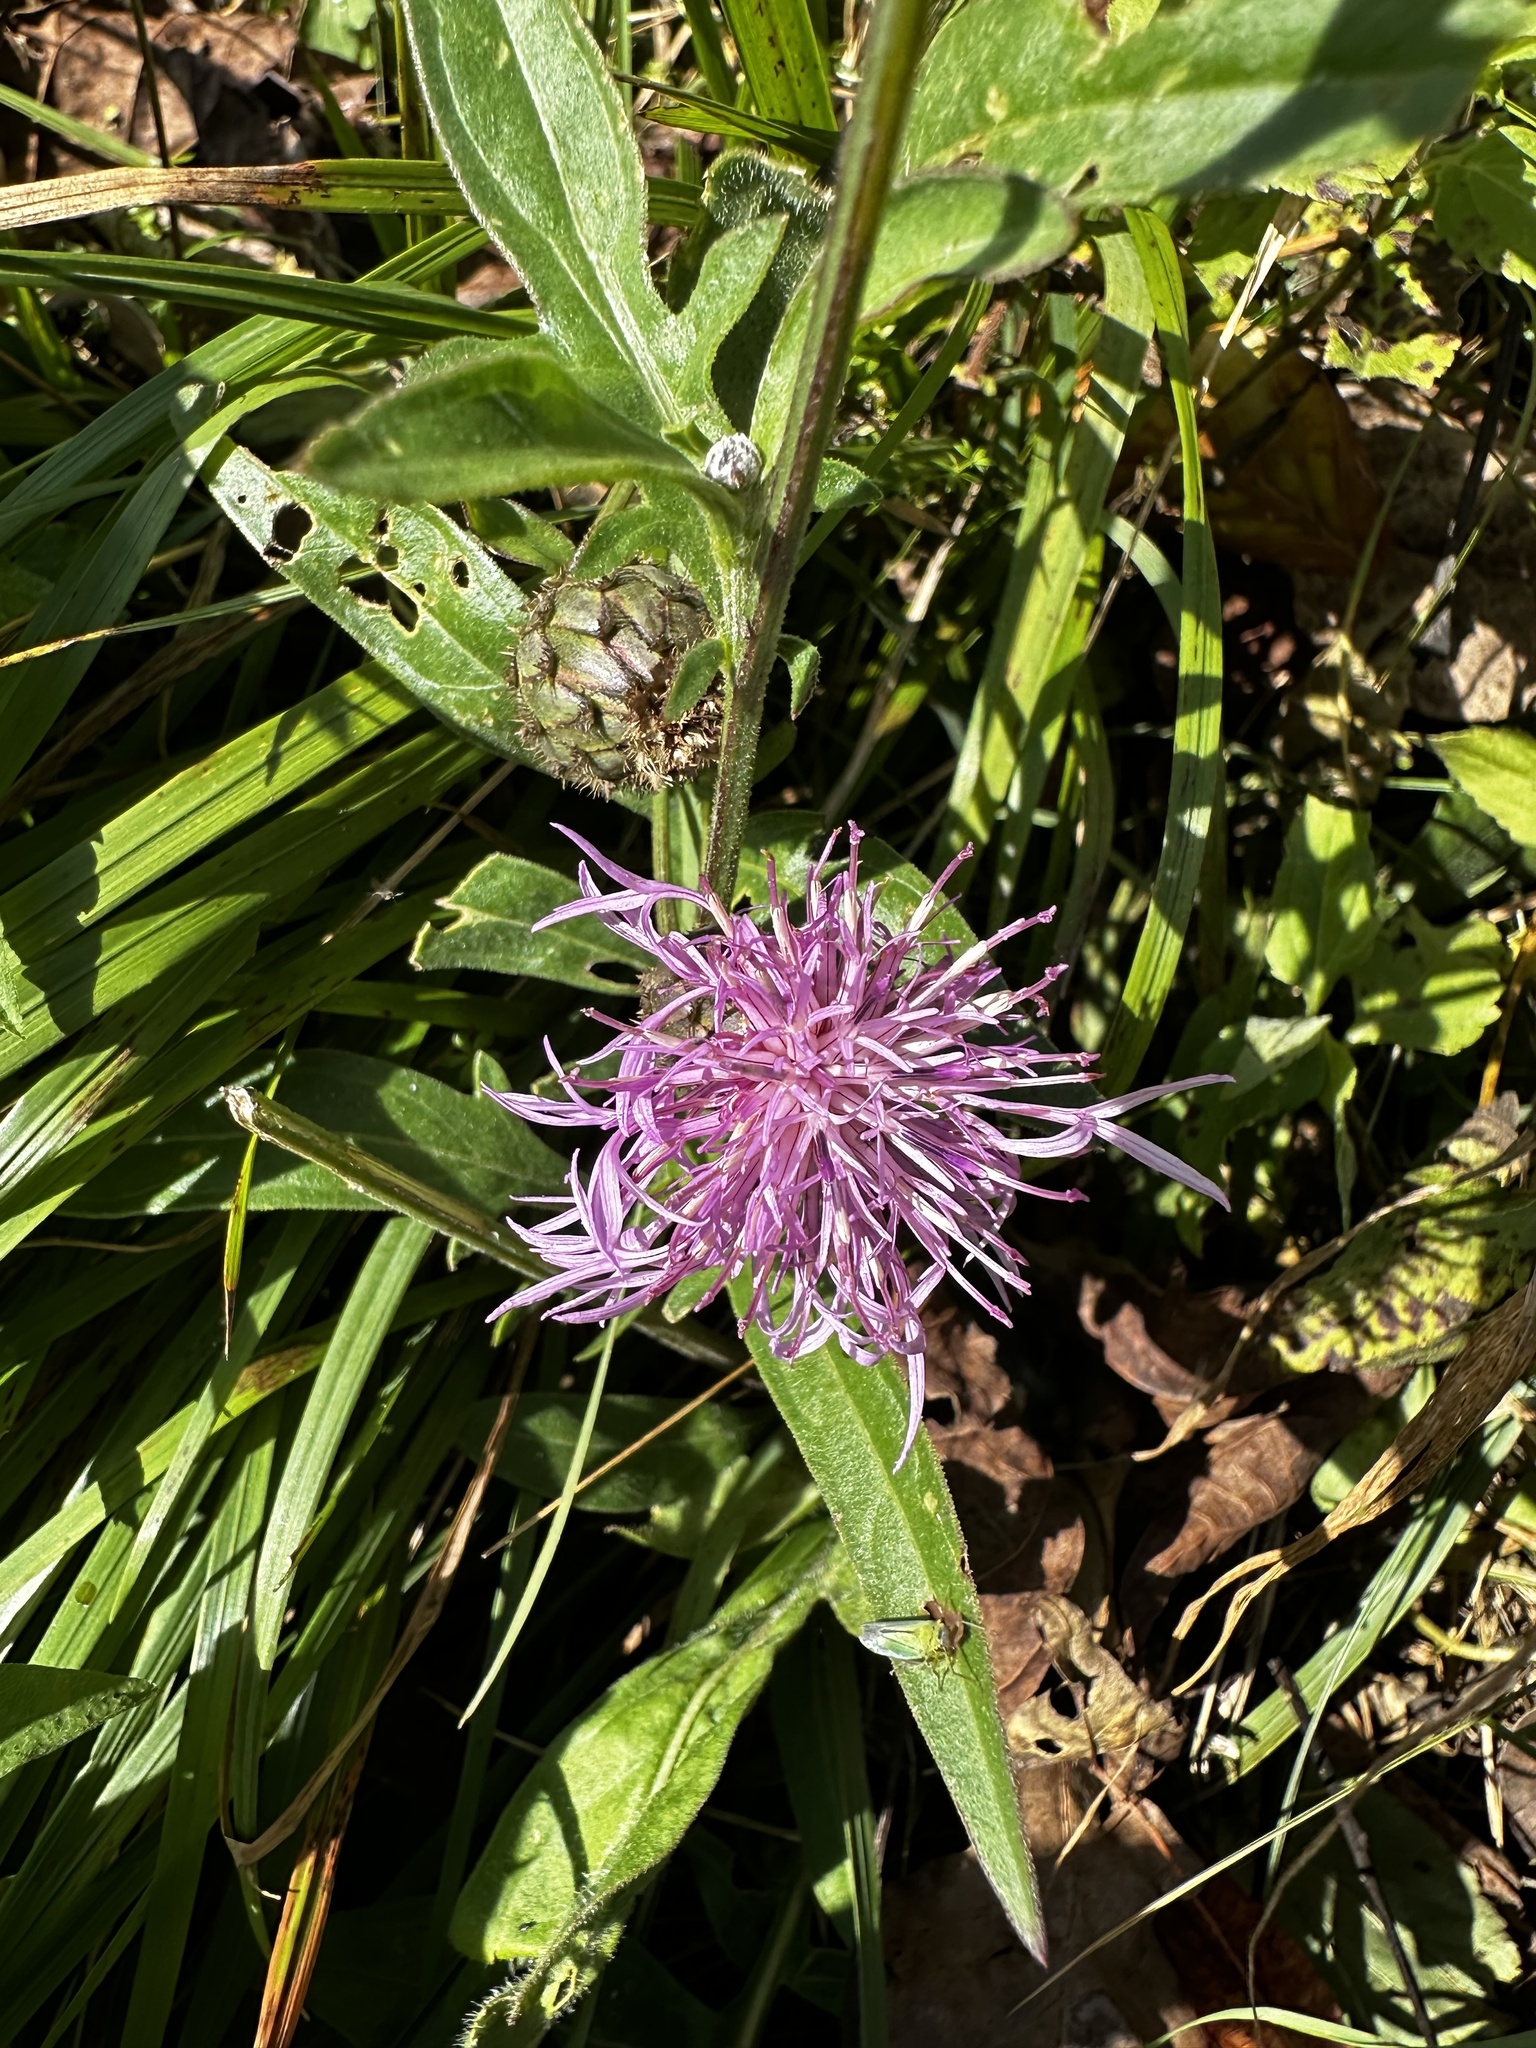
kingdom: Plantae
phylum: Tracheophyta
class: Magnoliopsida
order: Asterales
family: Asteraceae
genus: Centaurea
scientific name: Centaurea jacea
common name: Brown knapweed
